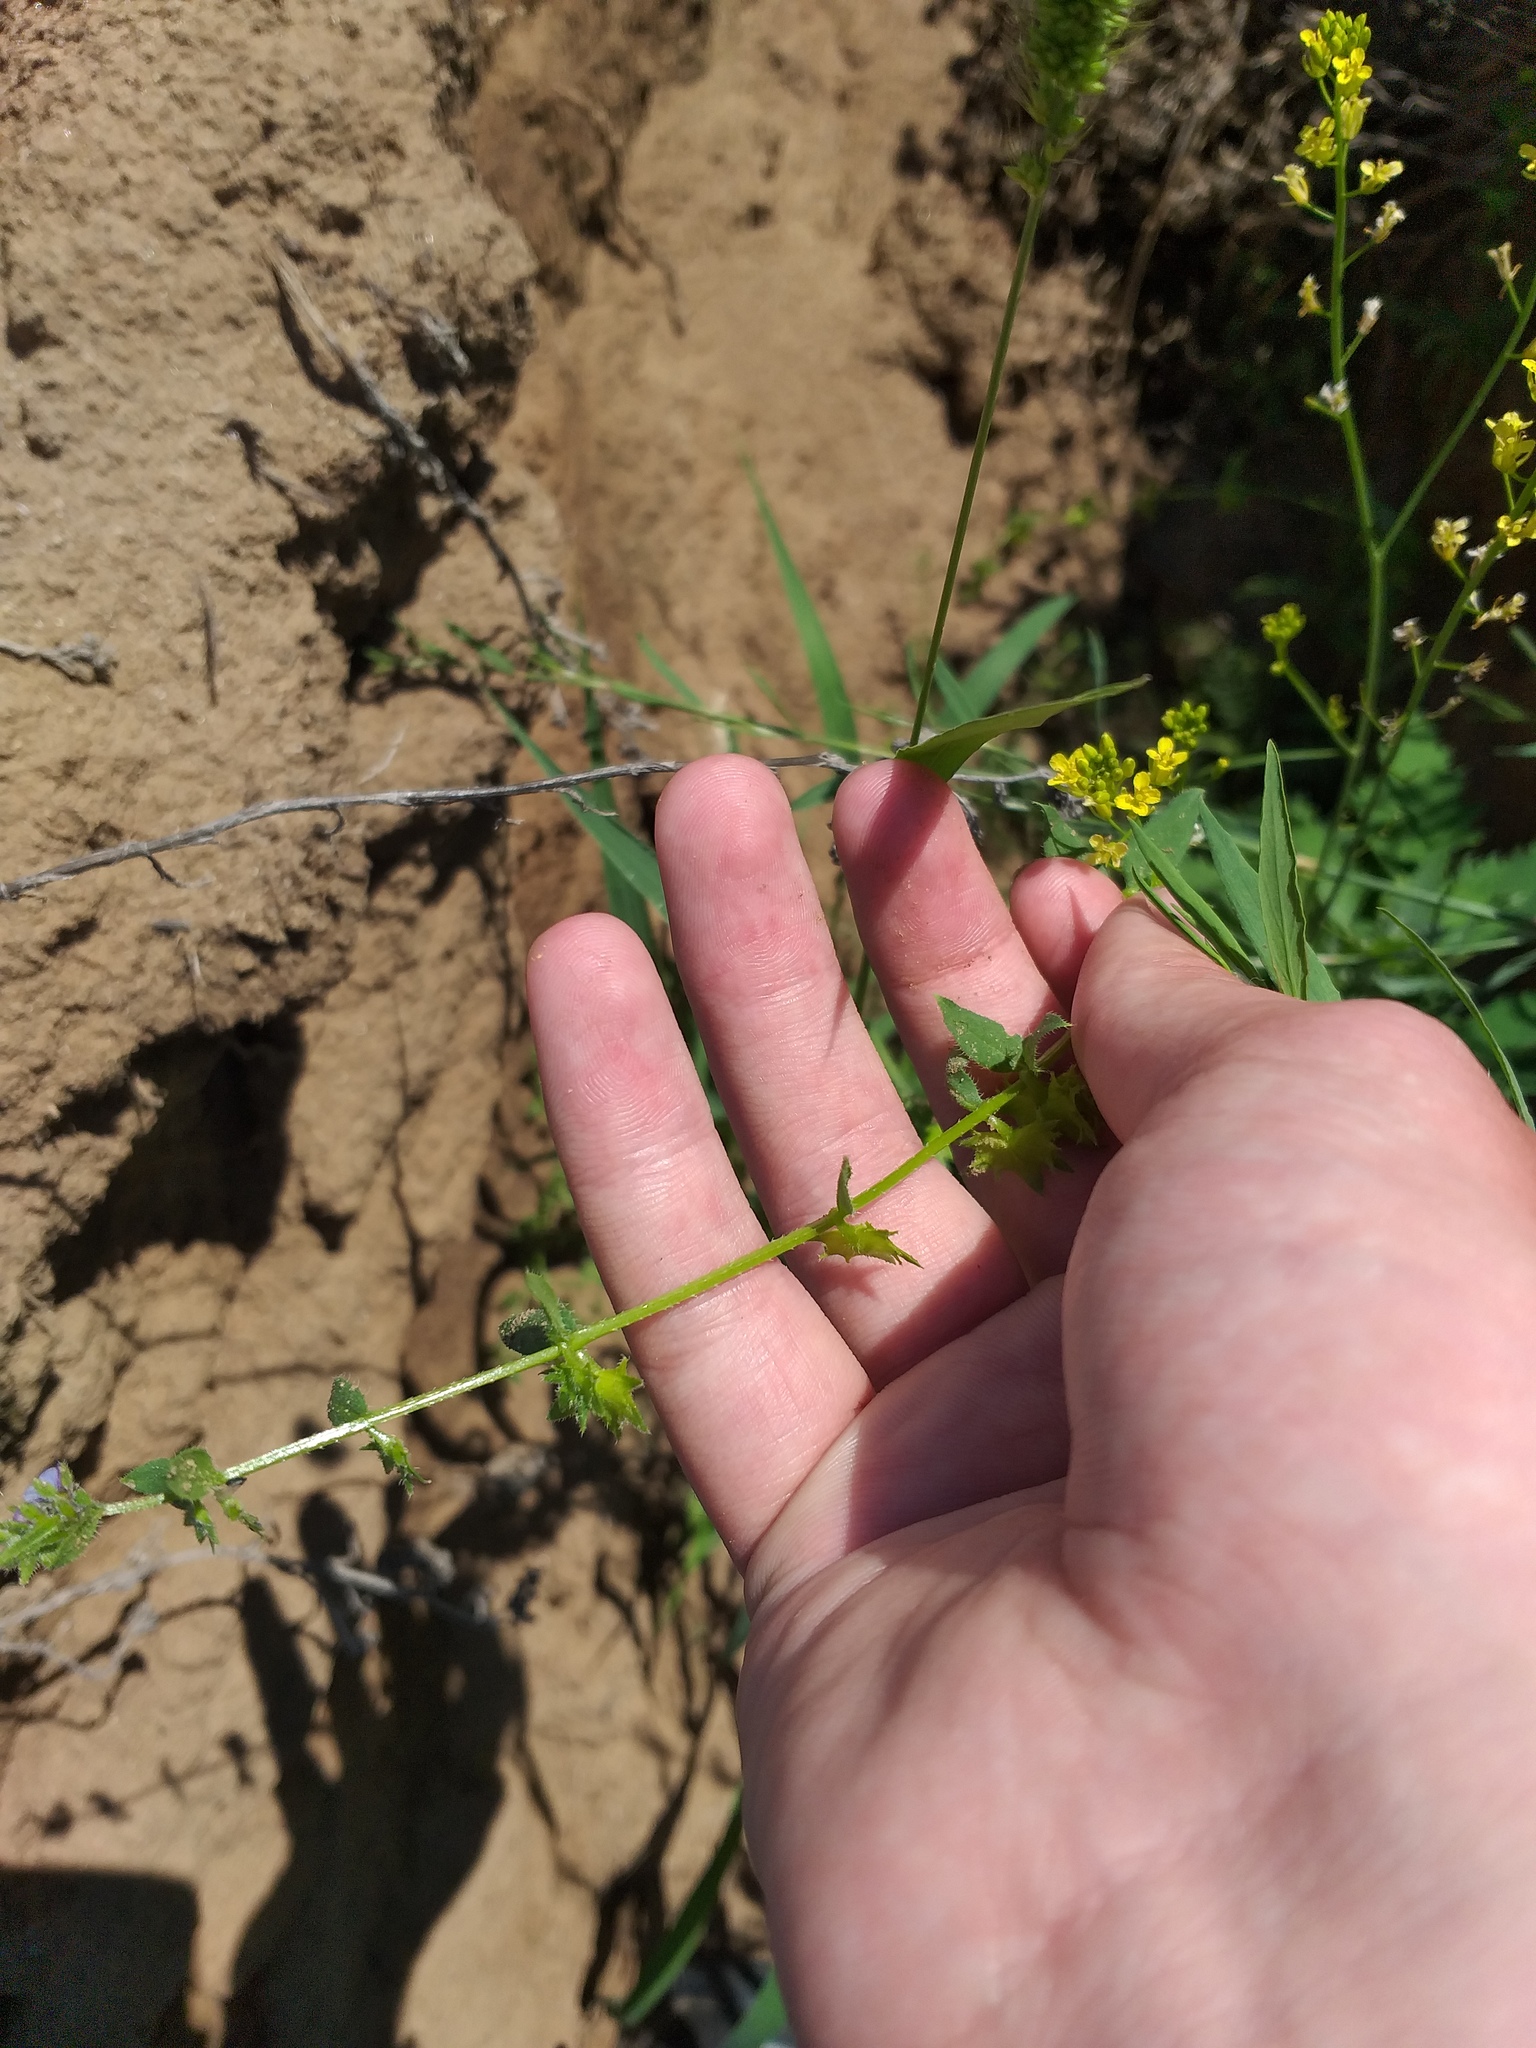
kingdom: Plantae
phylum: Tracheophyta
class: Magnoliopsida
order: Boraginales
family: Boraginaceae
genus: Asperugo
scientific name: Asperugo procumbens
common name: Madwort
